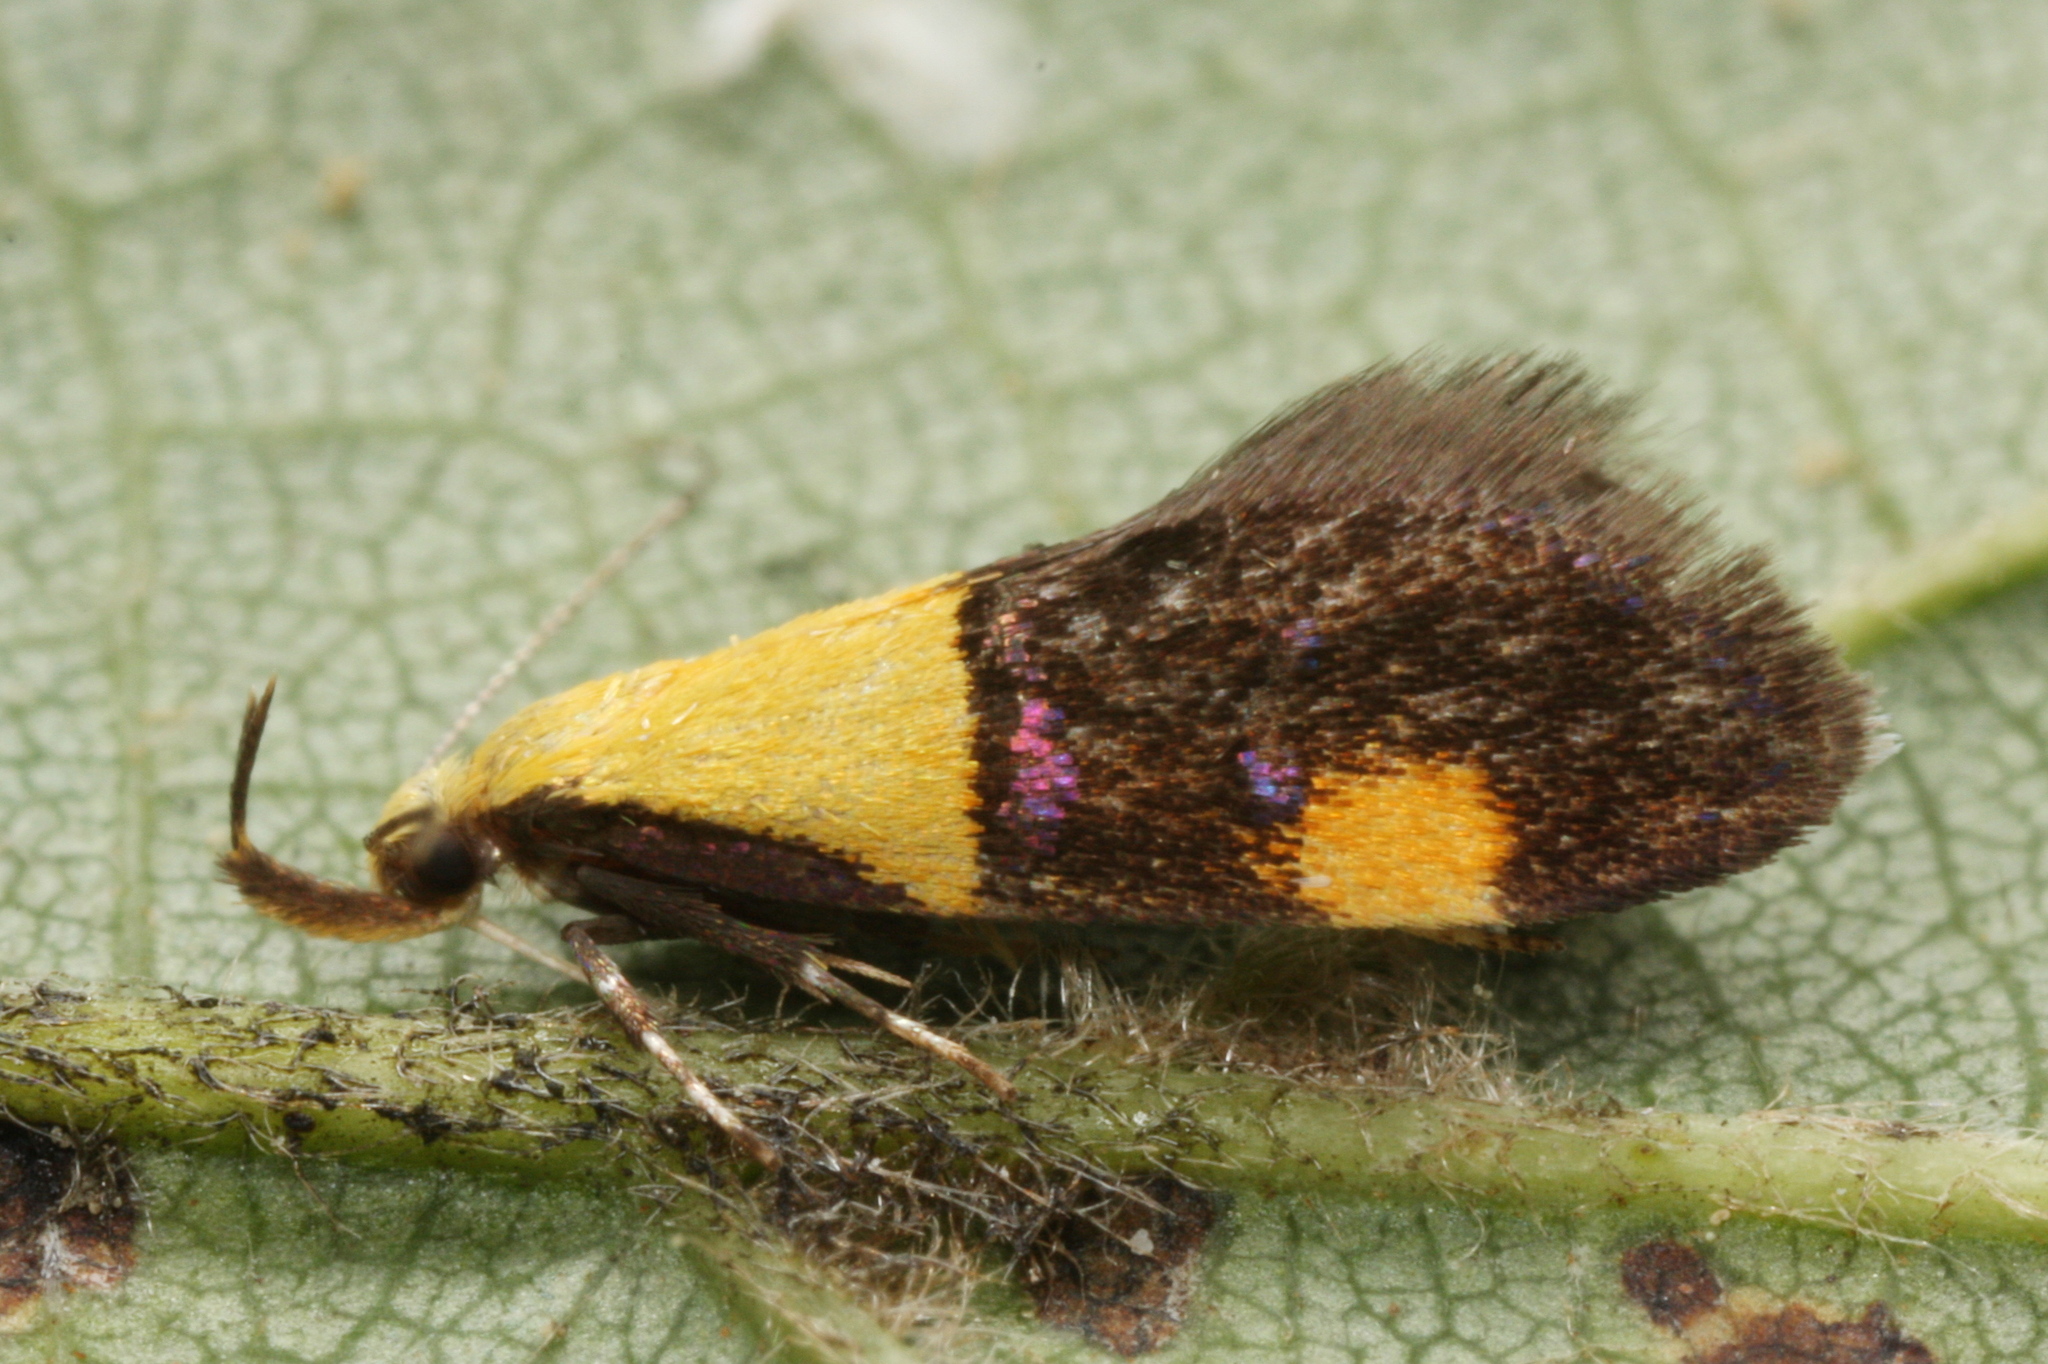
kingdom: Animalia
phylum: Arthropoda
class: Insecta
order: Lepidoptera
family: Oecophoridae
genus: Oecophora
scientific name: Oecophora bractella
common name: Gold-base tubic
